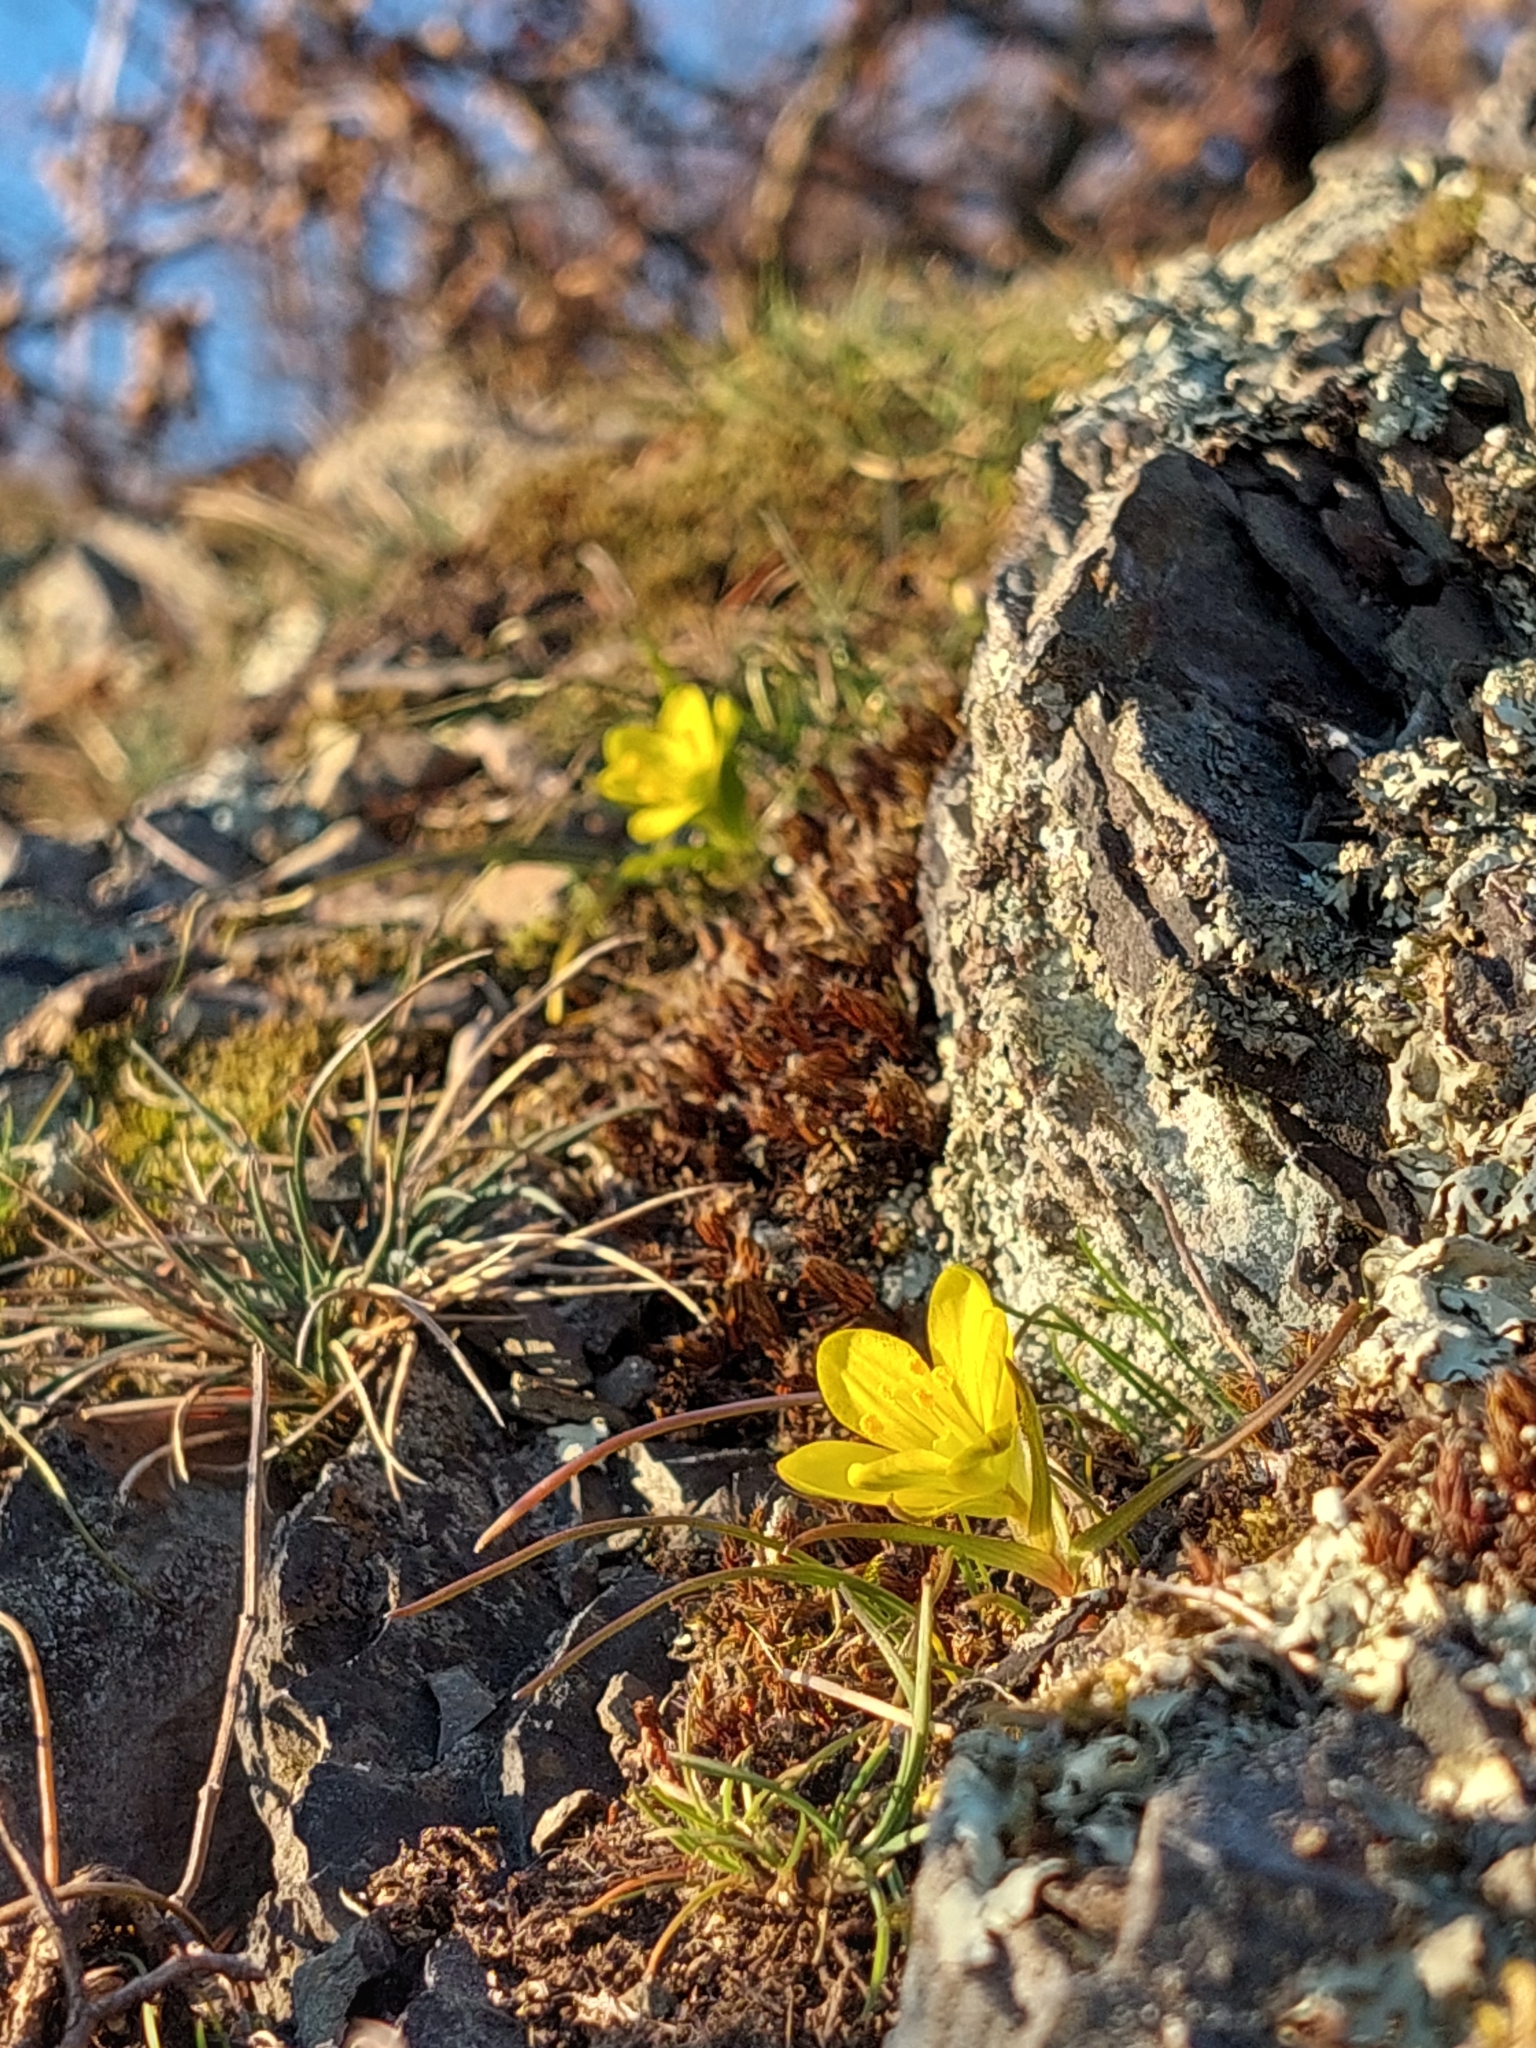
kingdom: Plantae
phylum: Tracheophyta
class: Liliopsida
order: Liliales
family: Liliaceae
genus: Gagea
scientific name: Gagea bohemica
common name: Early star-of-bethlehem
